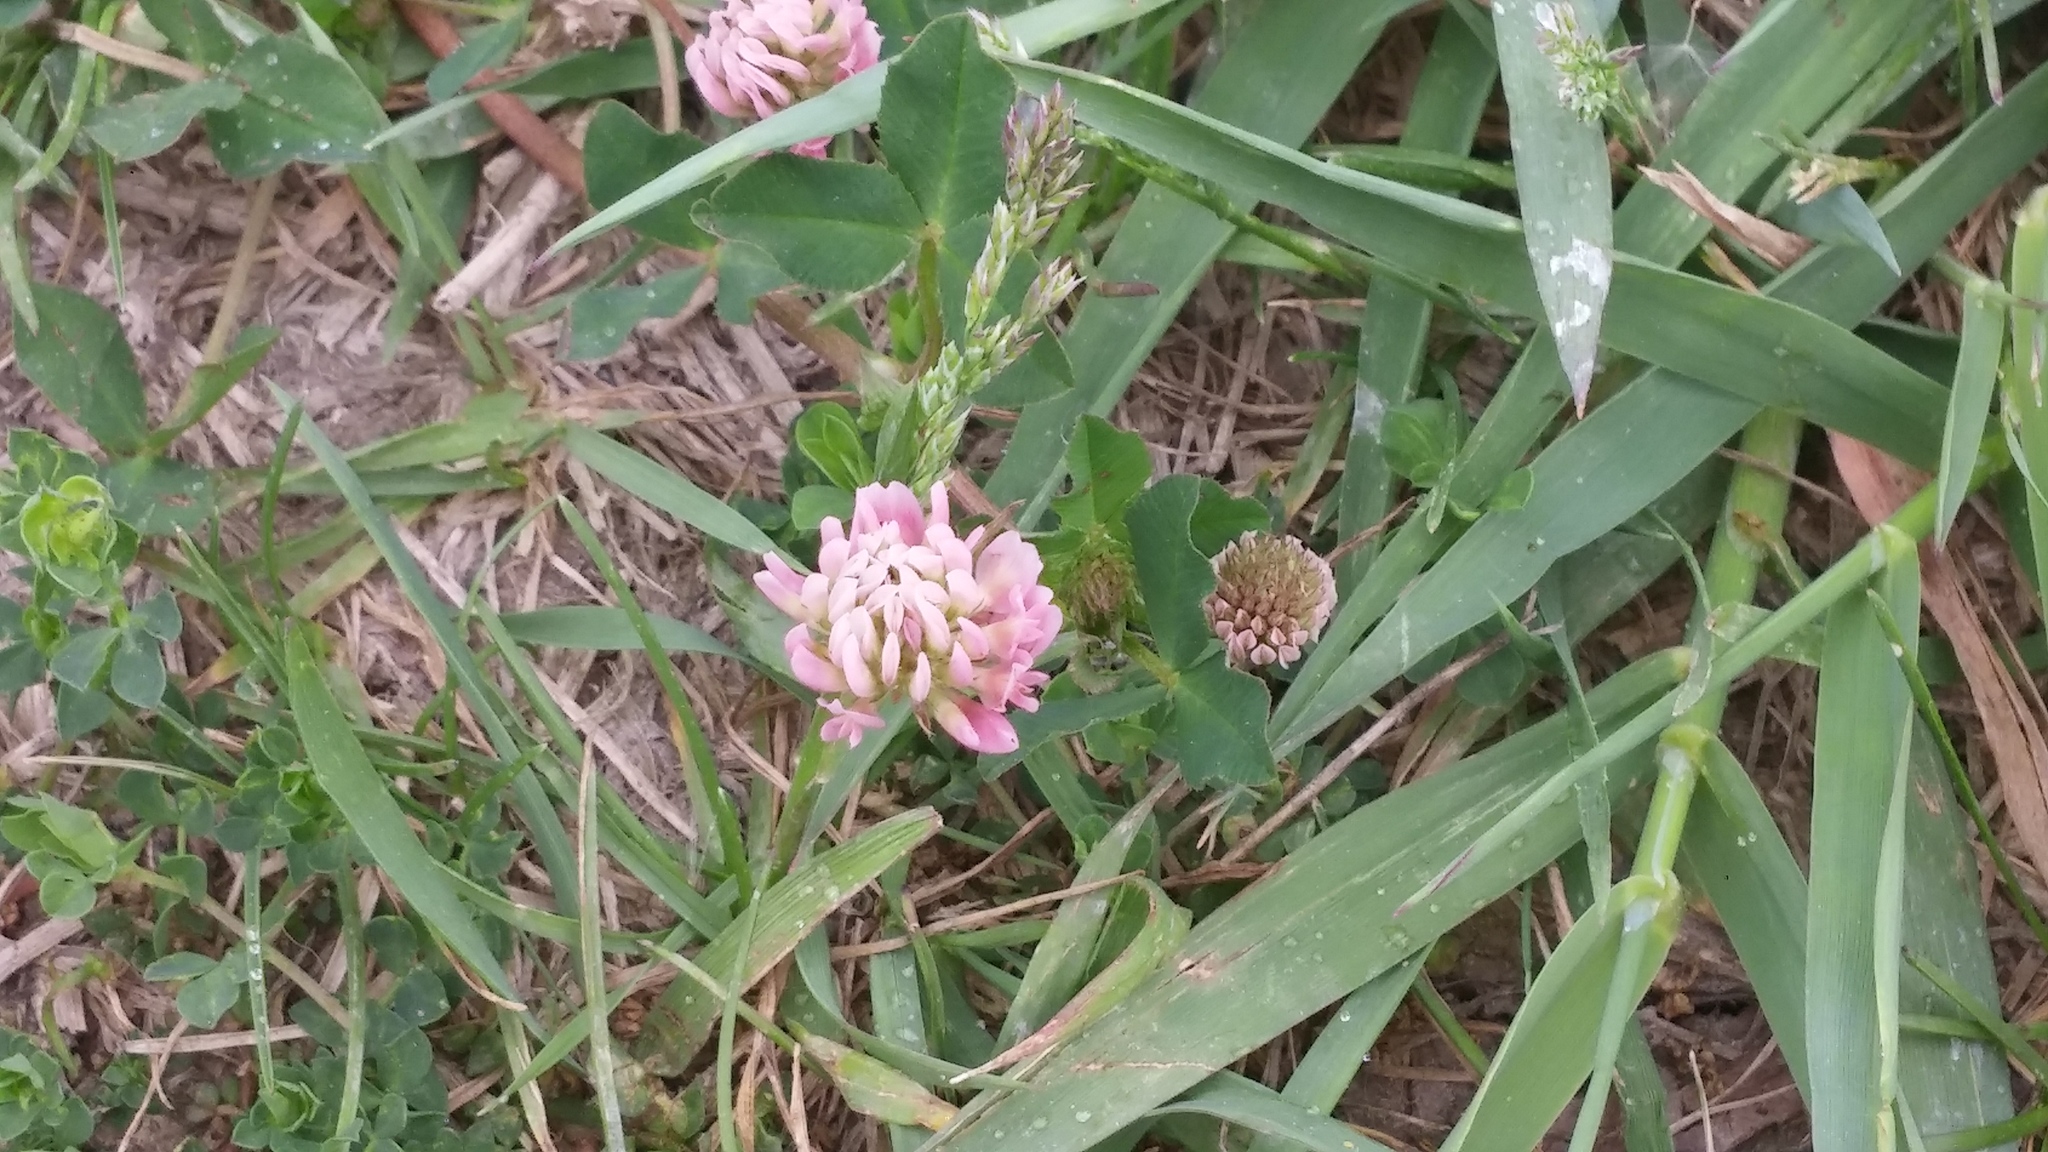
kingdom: Plantae
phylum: Tracheophyta
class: Magnoliopsida
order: Fabales
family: Fabaceae
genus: Trifolium
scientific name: Trifolium hybridum
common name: Alsike clover
